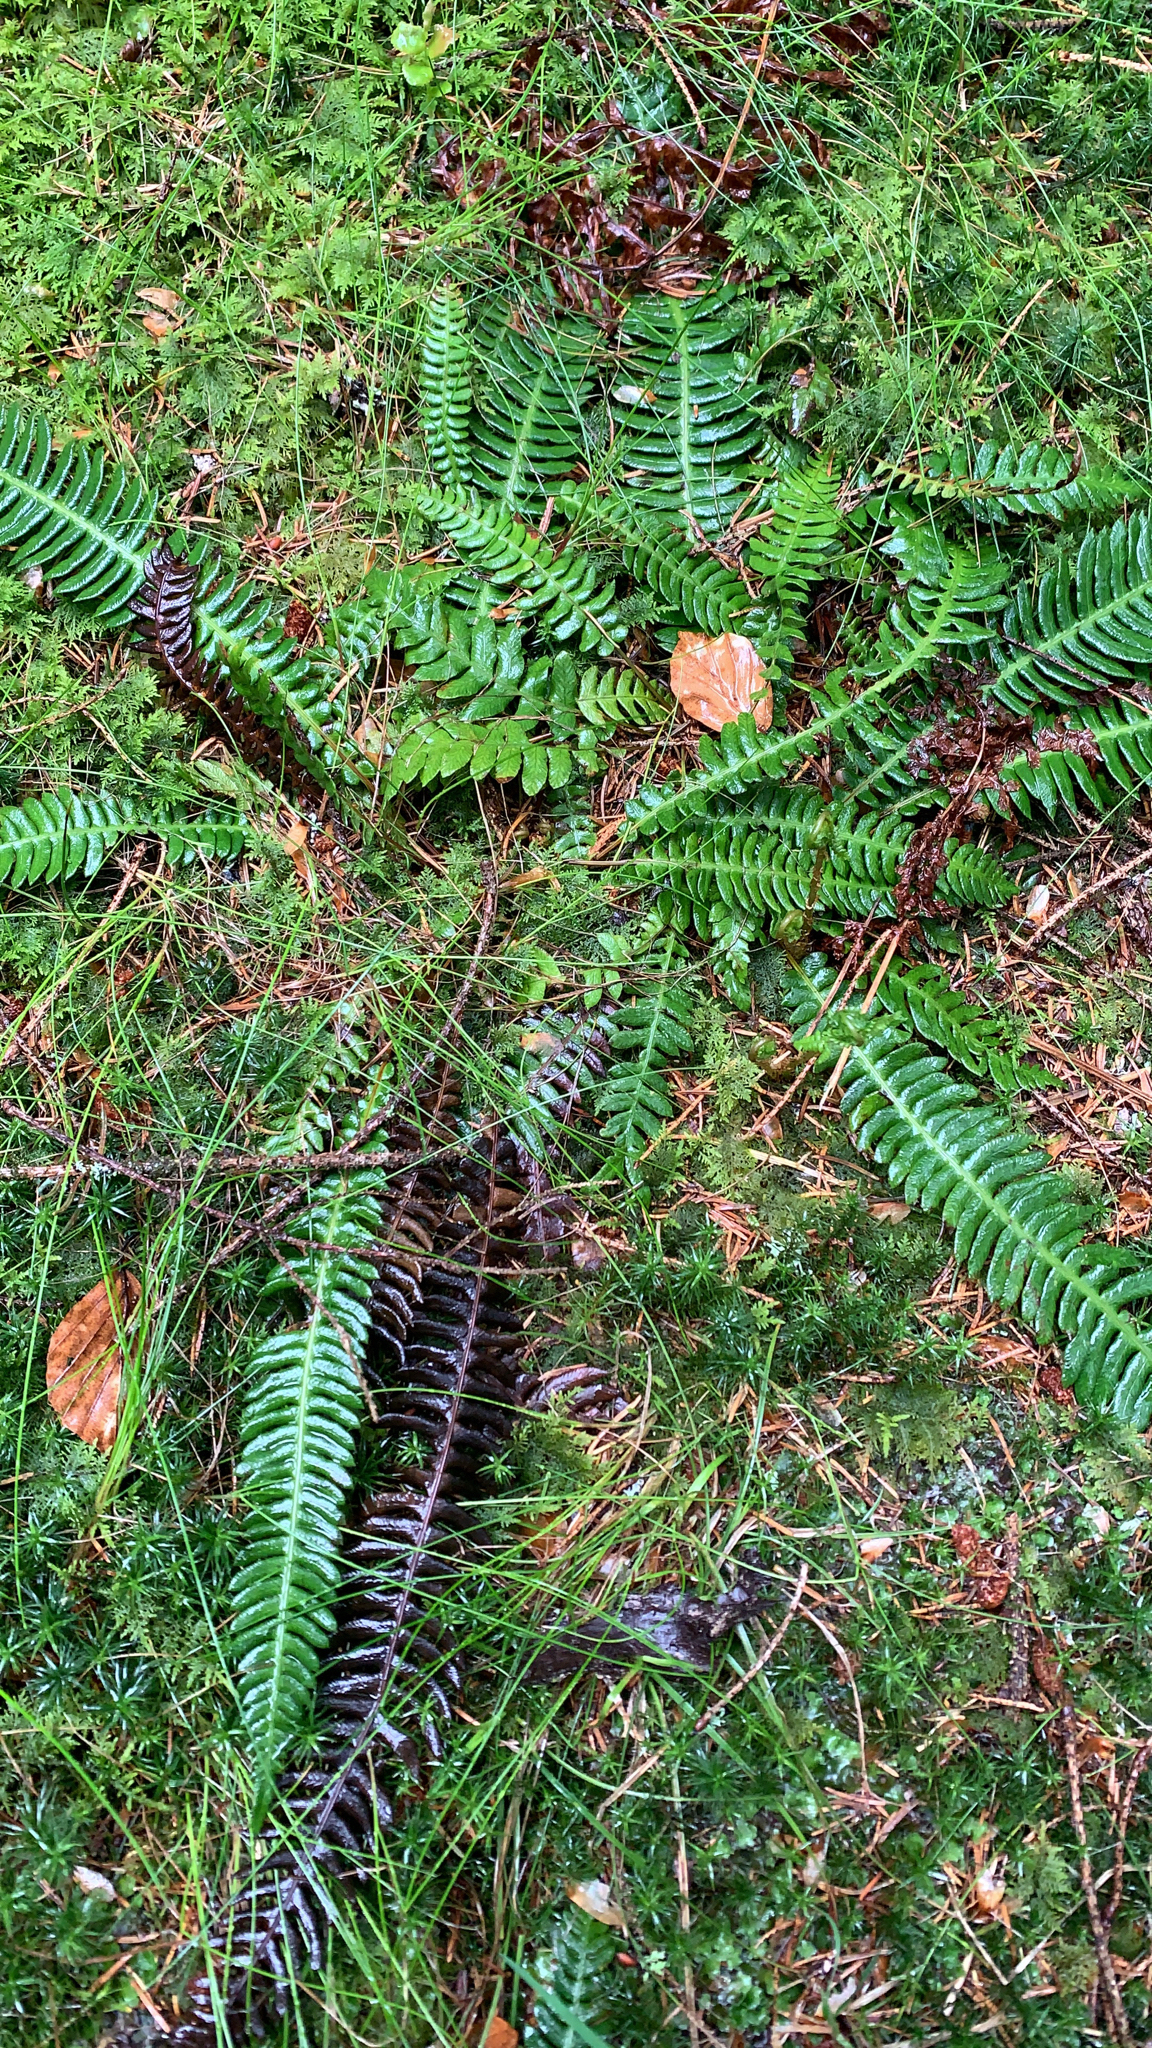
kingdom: Plantae
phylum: Tracheophyta
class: Polypodiopsida
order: Polypodiales
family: Blechnaceae
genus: Struthiopteris
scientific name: Struthiopteris spicant
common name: Deer fern
